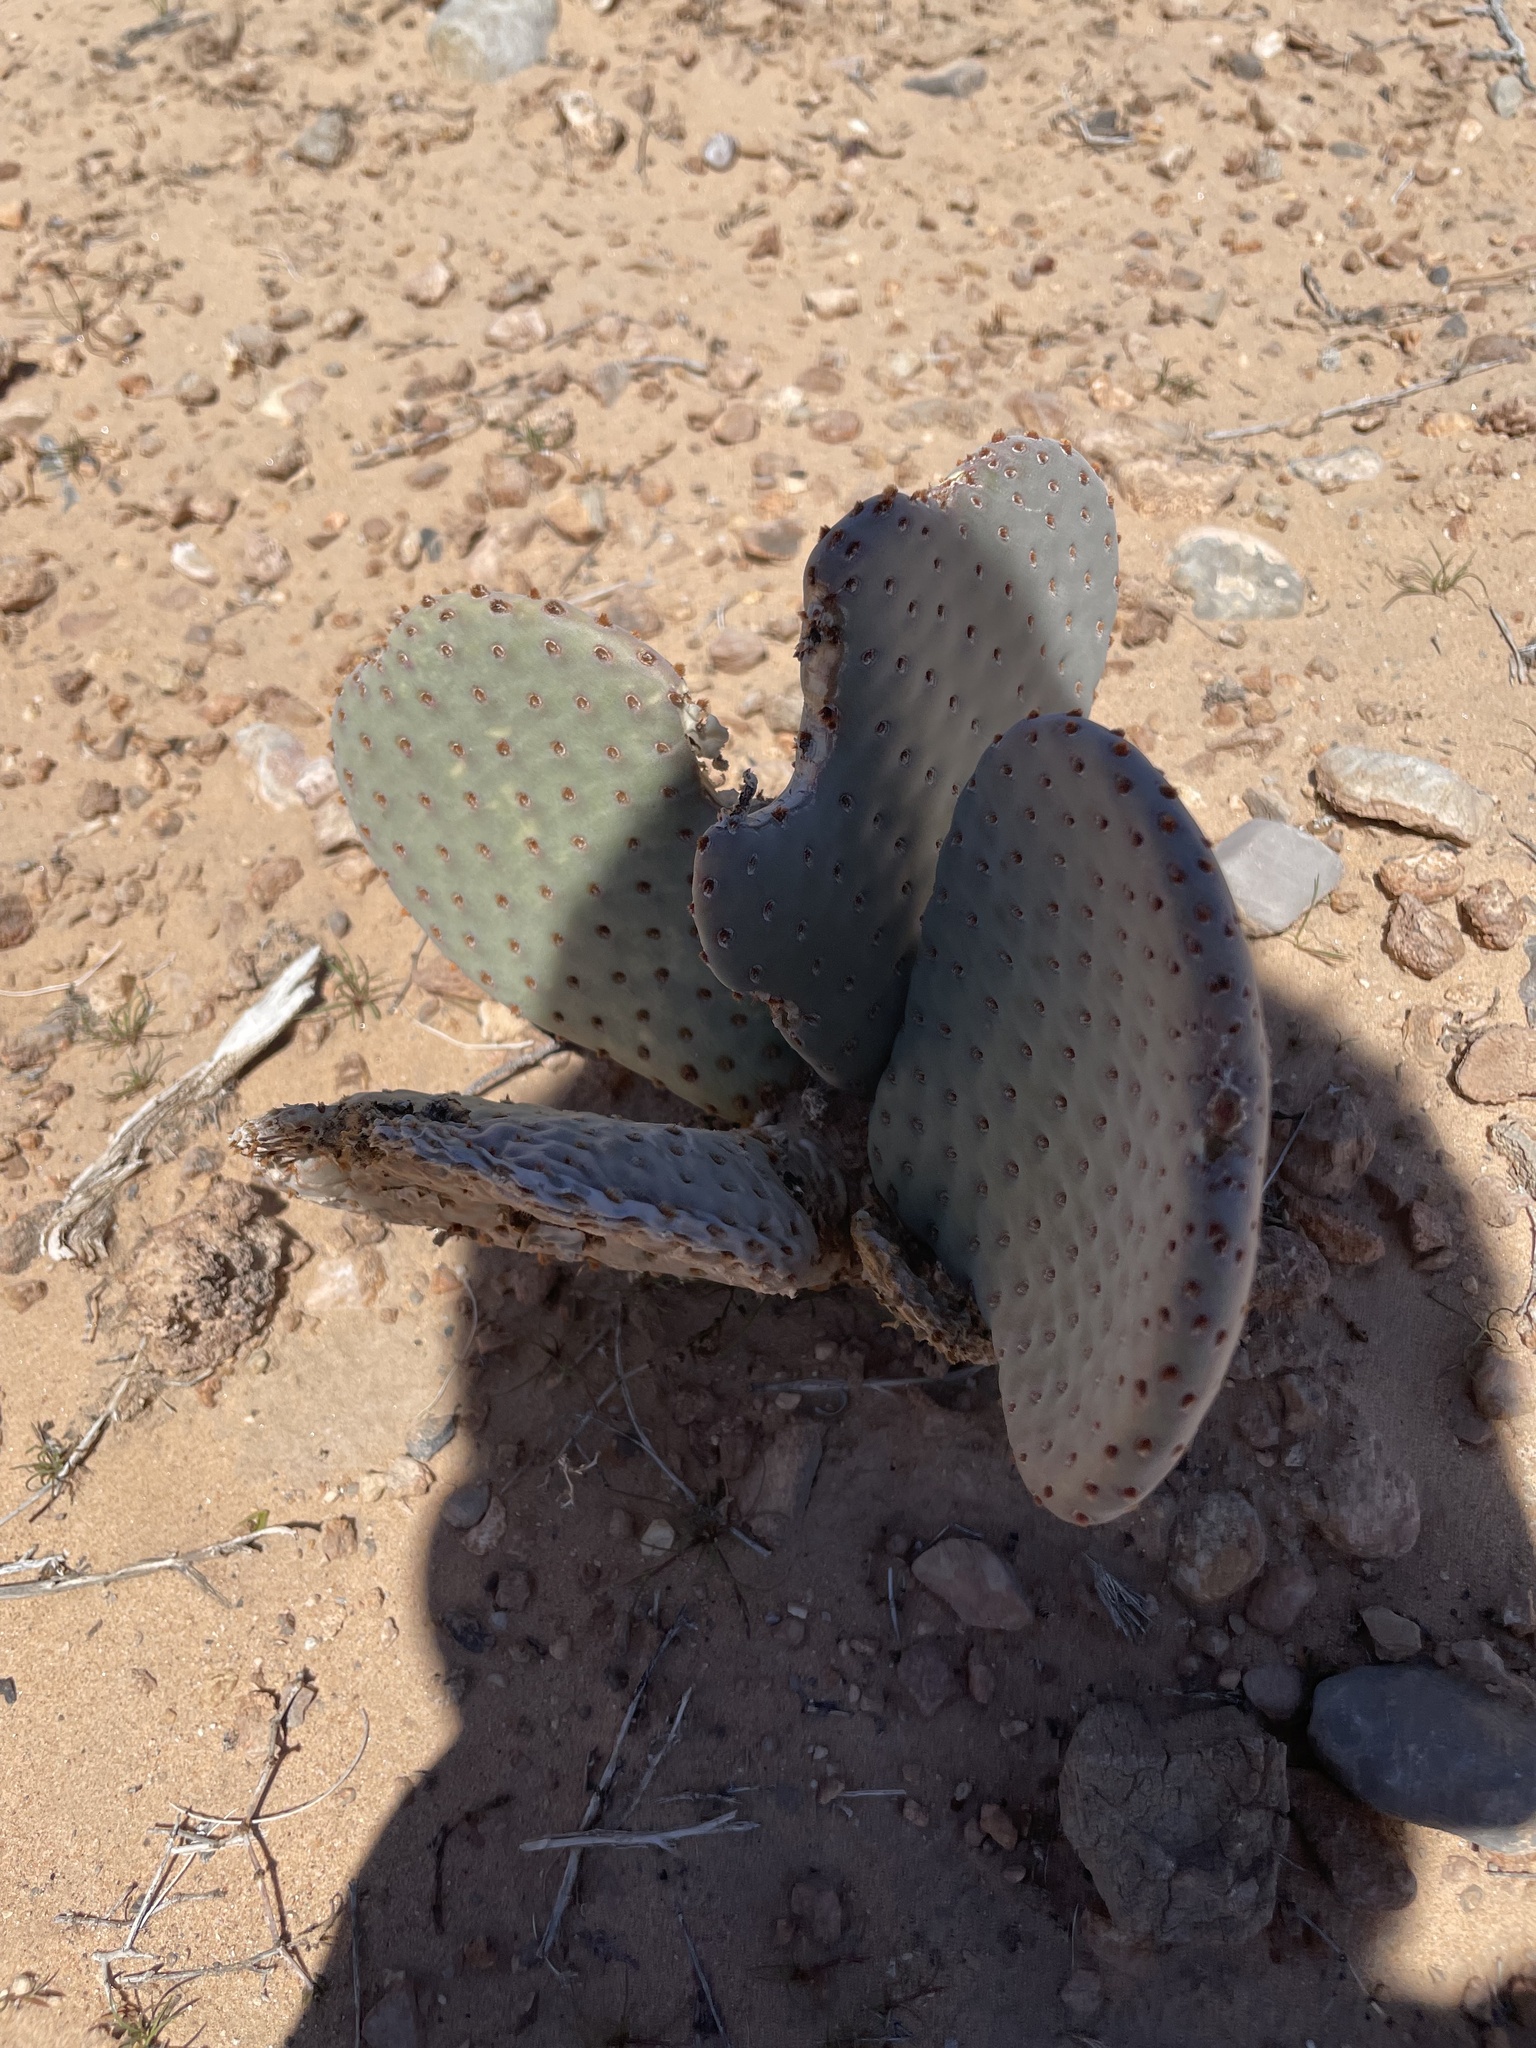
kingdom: Plantae
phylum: Tracheophyta
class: Magnoliopsida
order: Caryophyllales
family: Cactaceae
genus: Opuntia
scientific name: Opuntia basilaris
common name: Beavertail prickly-pear
